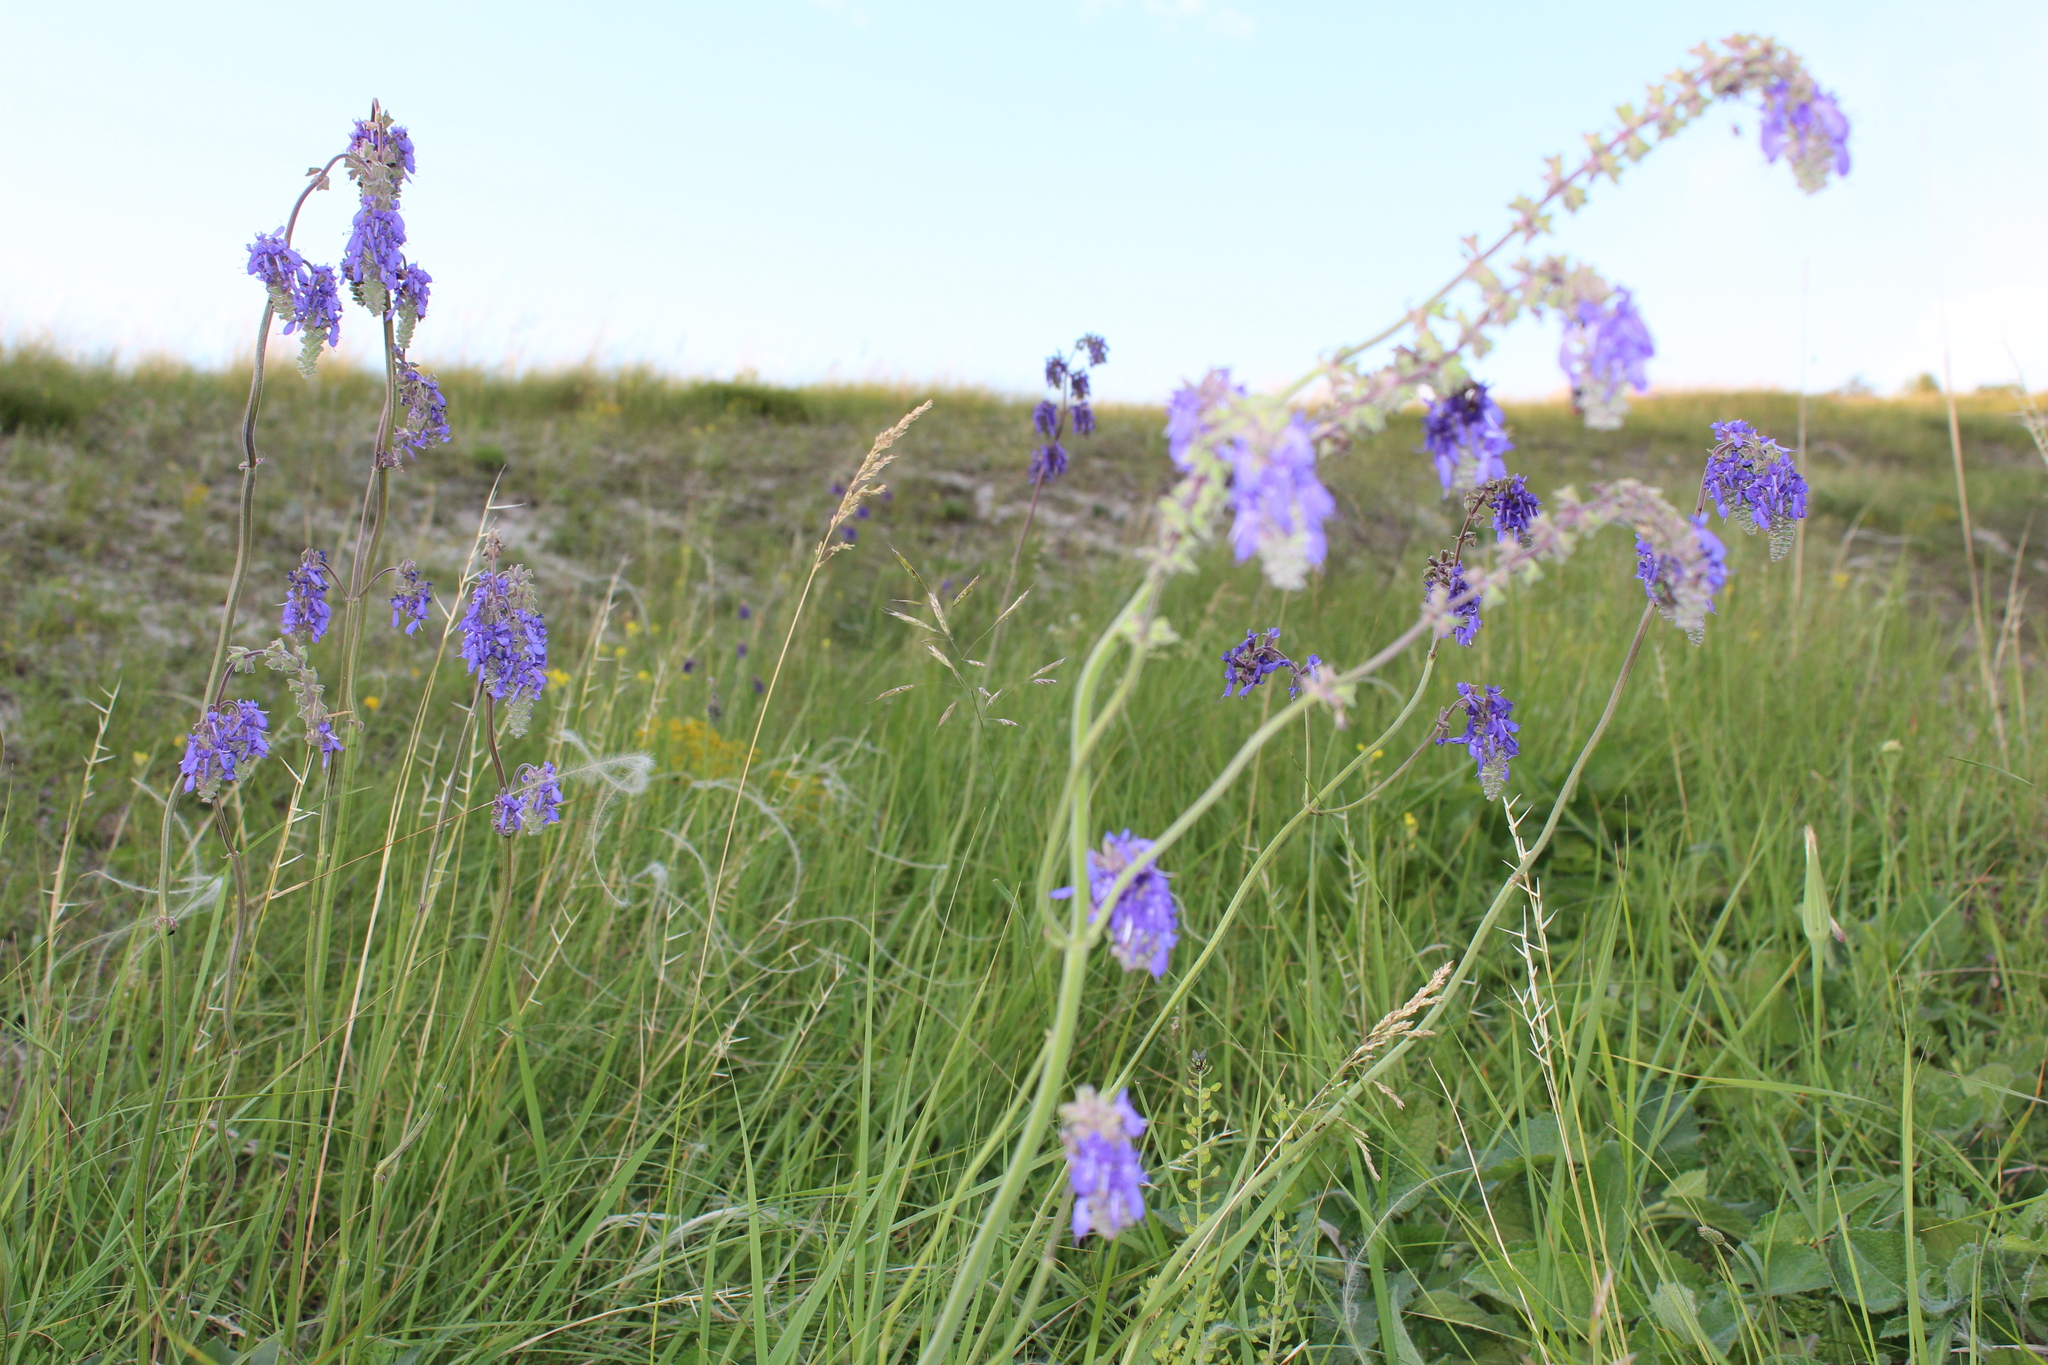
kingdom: Plantae
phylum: Tracheophyta
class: Magnoliopsida
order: Lamiales
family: Lamiaceae
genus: Salvia
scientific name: Salvia nutans
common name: Nodding sage
